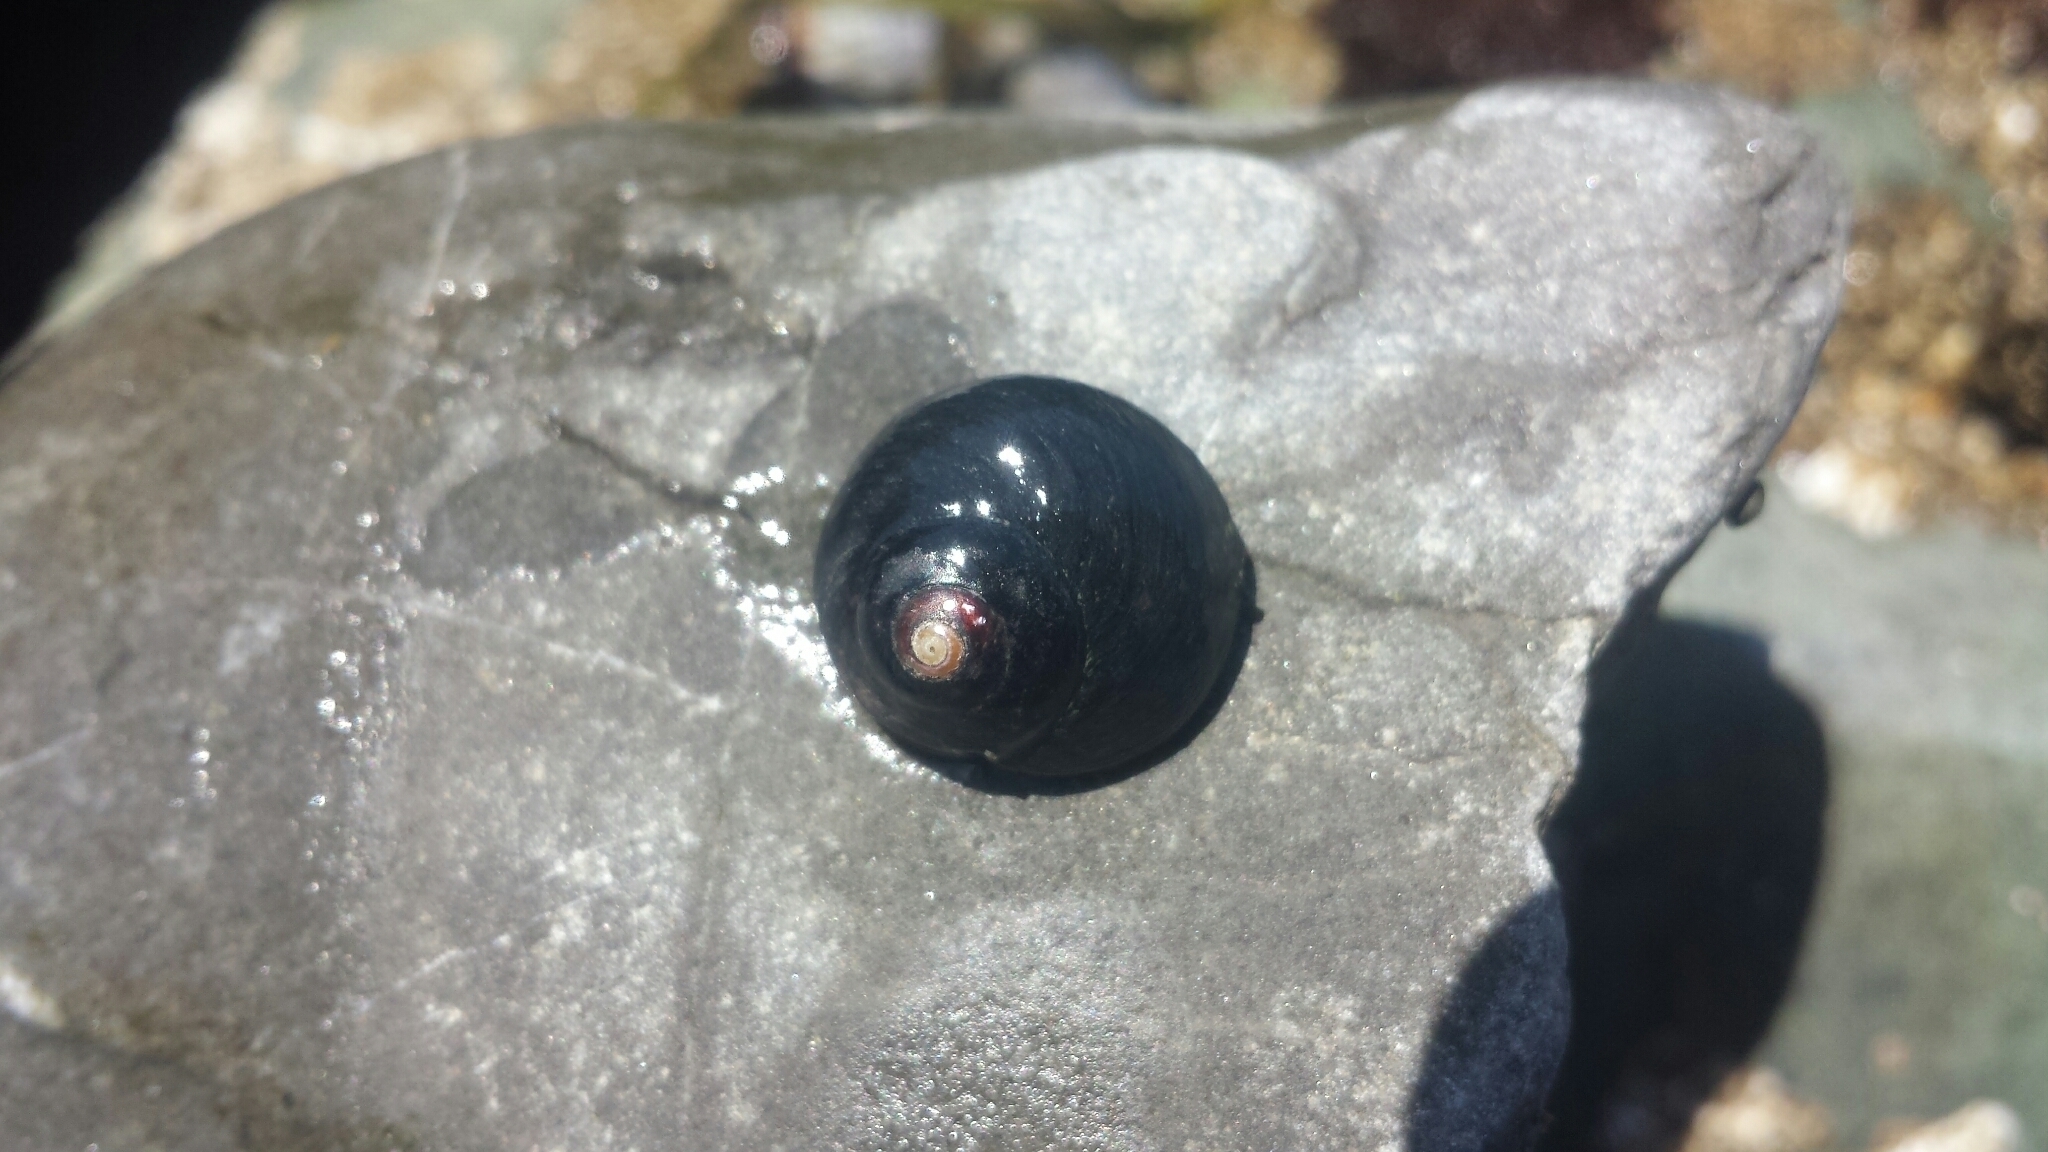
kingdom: Animalia
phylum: Mollusca
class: Gastropoda
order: Trochida
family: Tegulidae
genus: Tegula
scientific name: Tegula funebralis
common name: Black tegula
